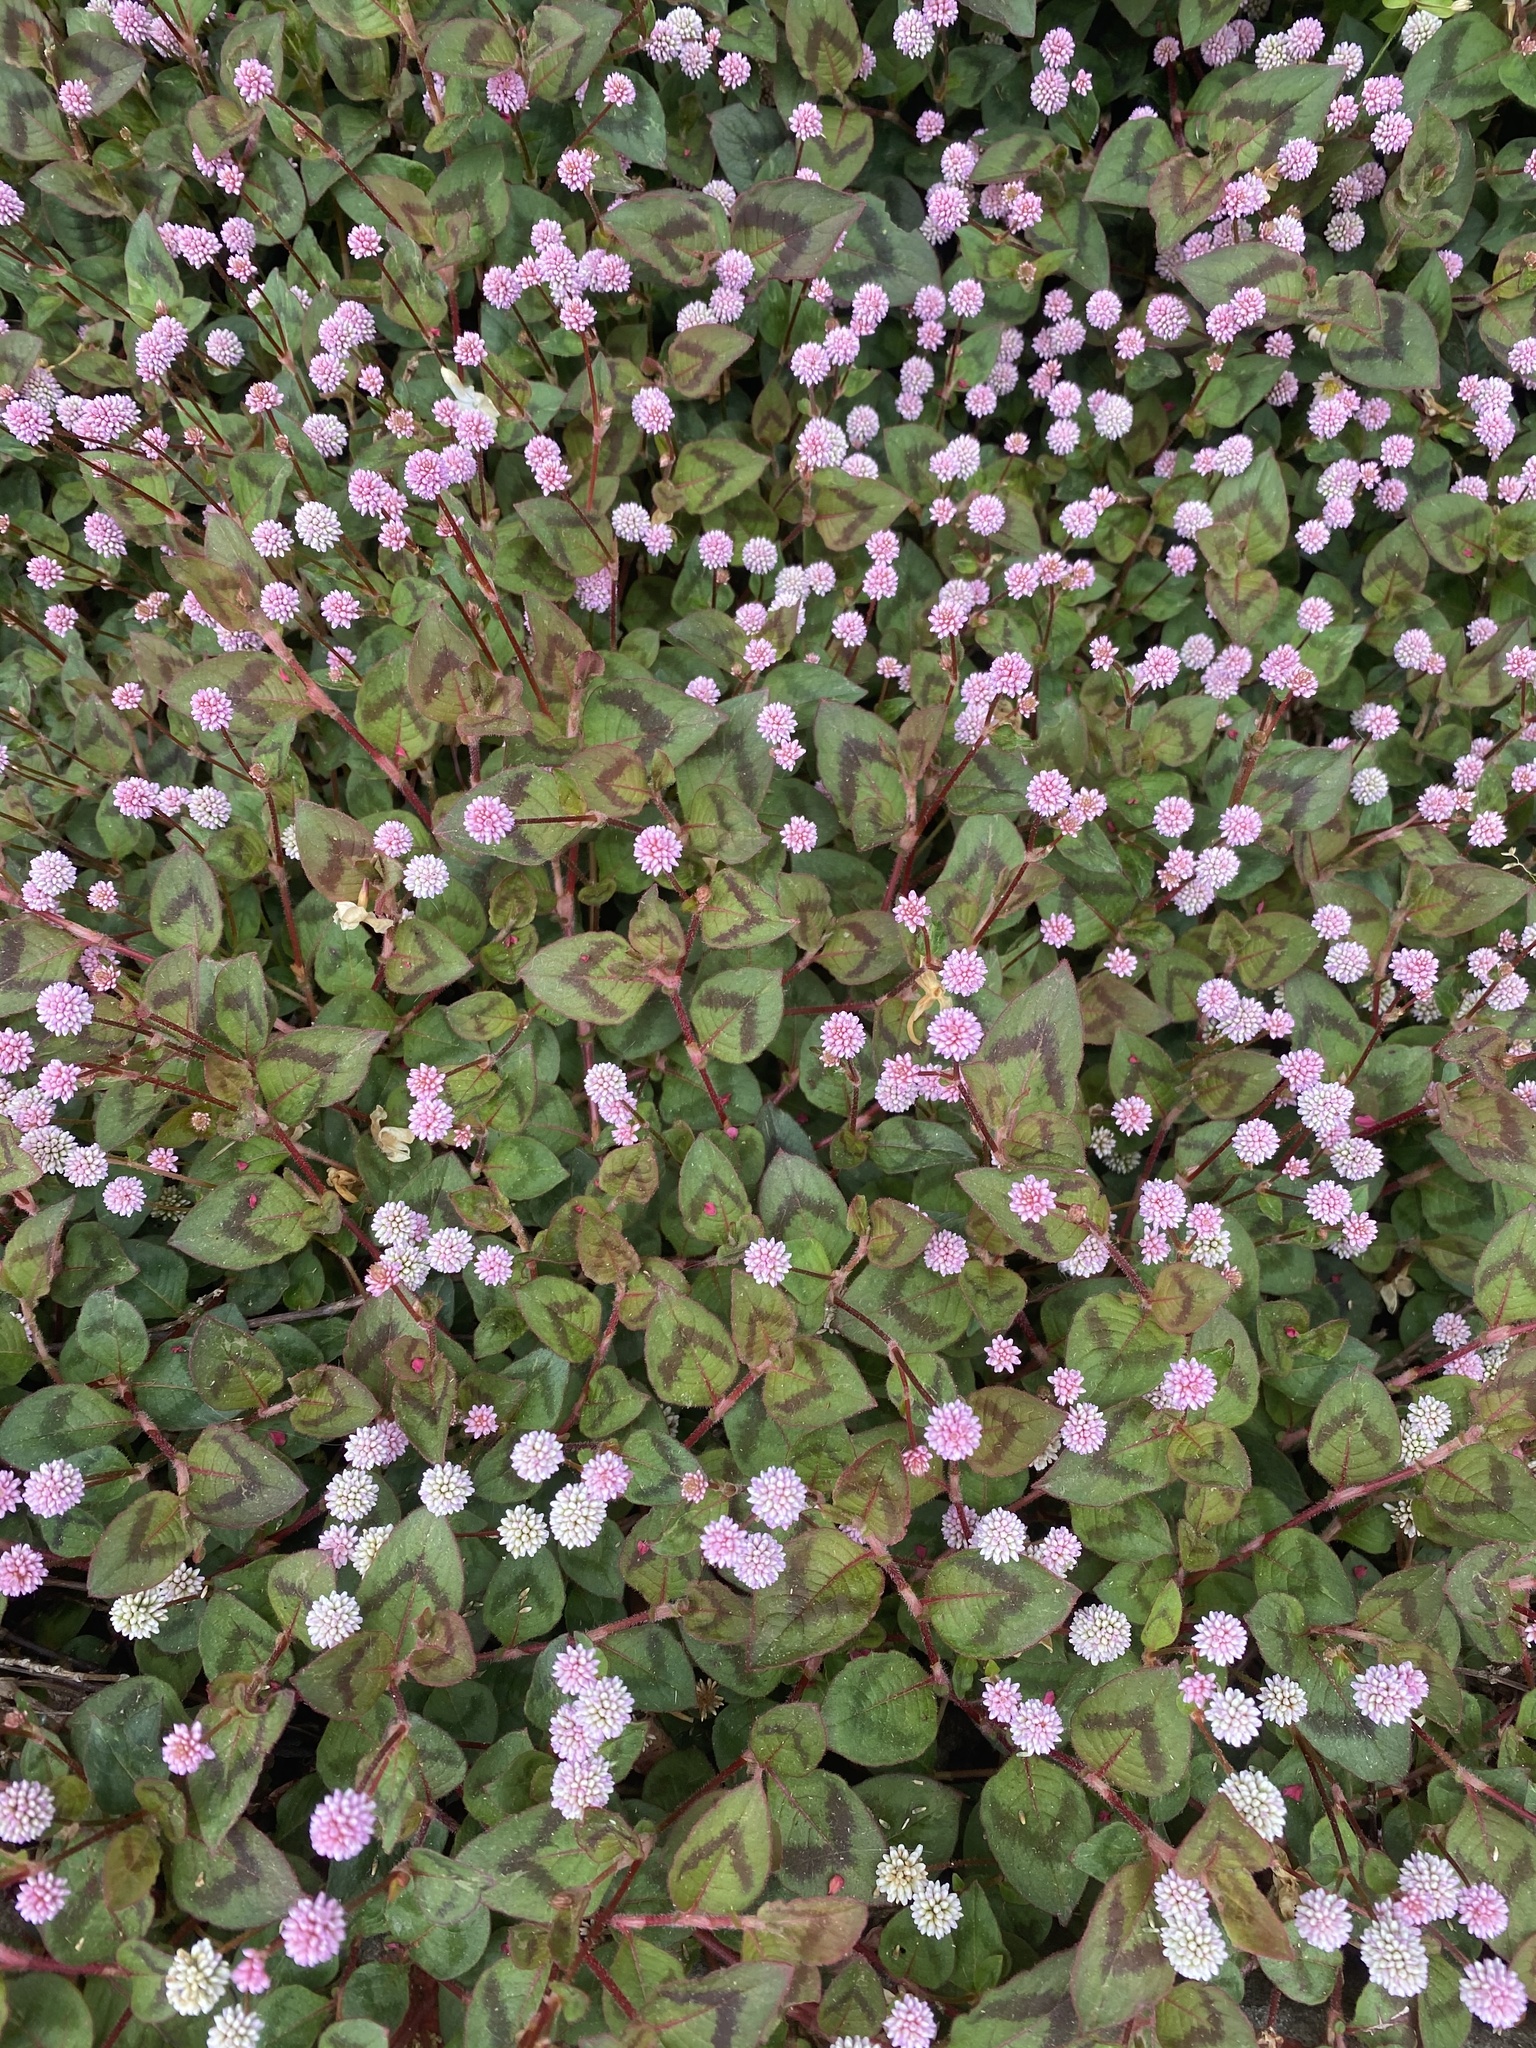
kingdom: Plantae
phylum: Tracheophyta
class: Magnoliopsida
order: Caryophyllales
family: Polygonaceae
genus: Persicaria
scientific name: Persicaria capitata
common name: Pinkhead smartweed
